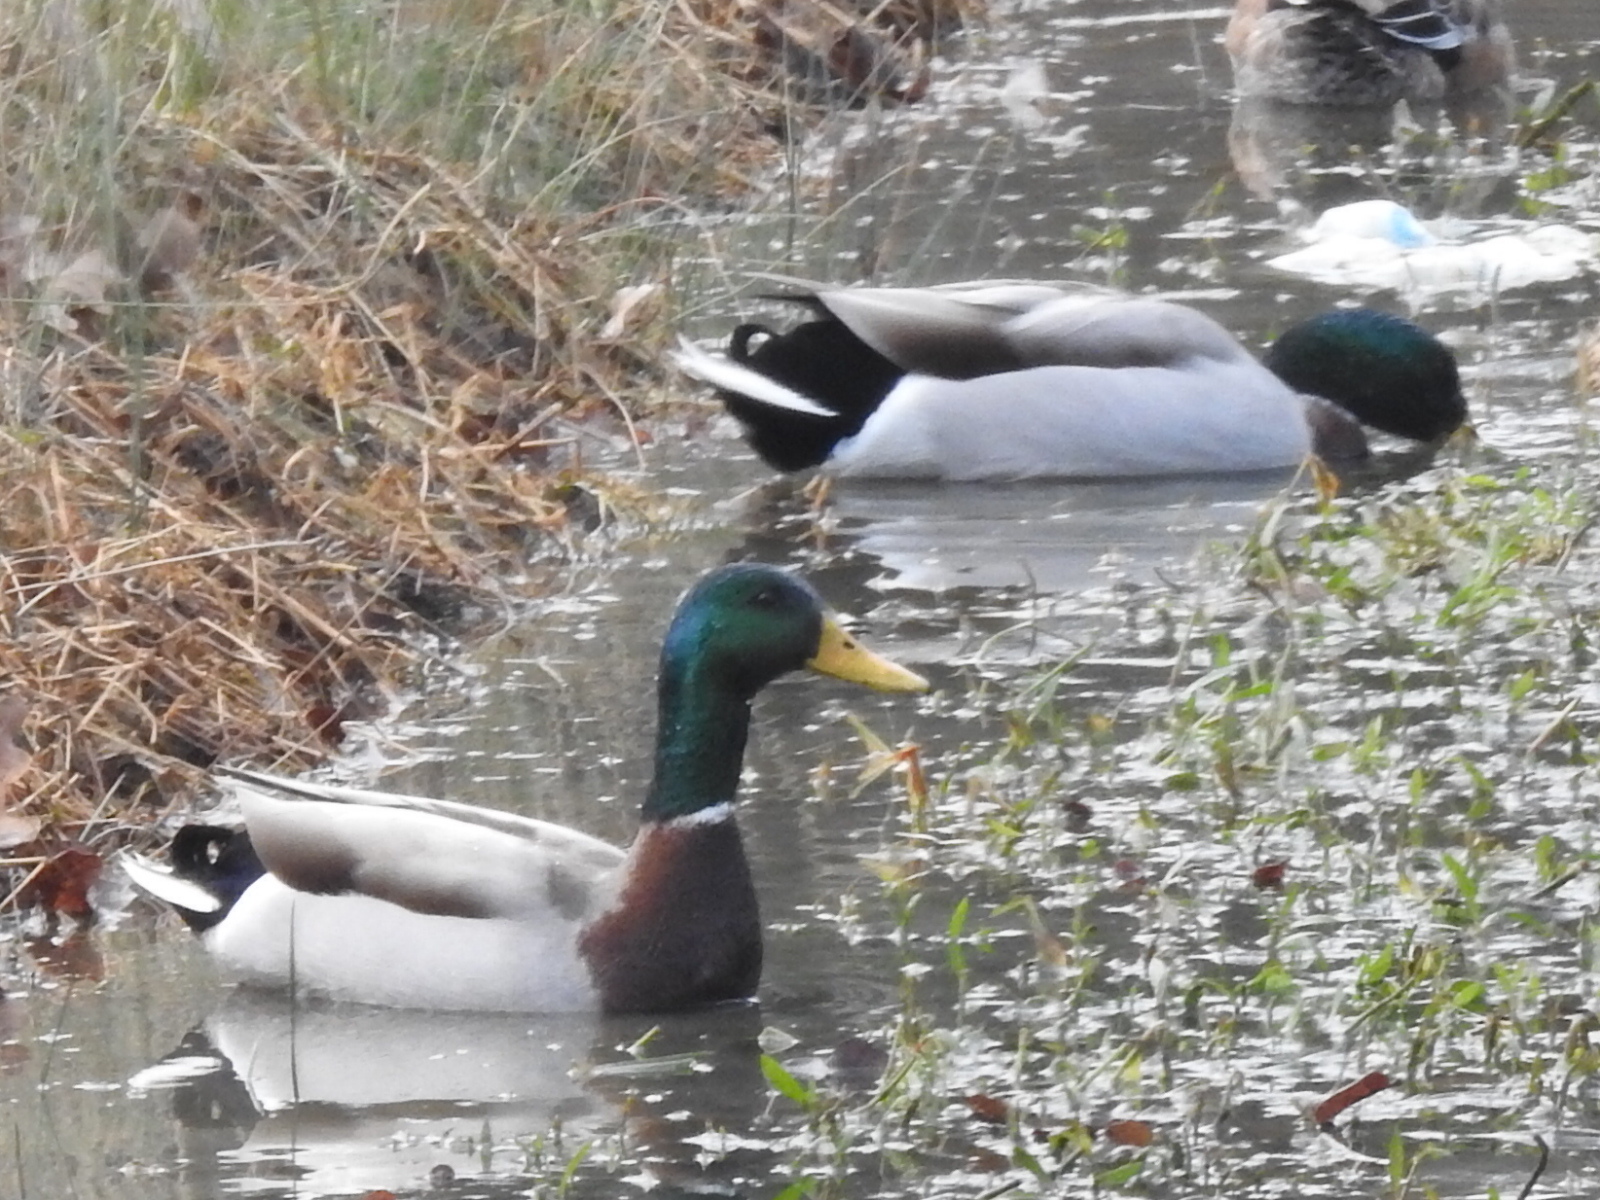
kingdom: Animalia
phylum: Chordata
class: Aves
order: Anseriformes
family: Anatidae
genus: Anas
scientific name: Anas platyrhynchos
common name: Mallard
